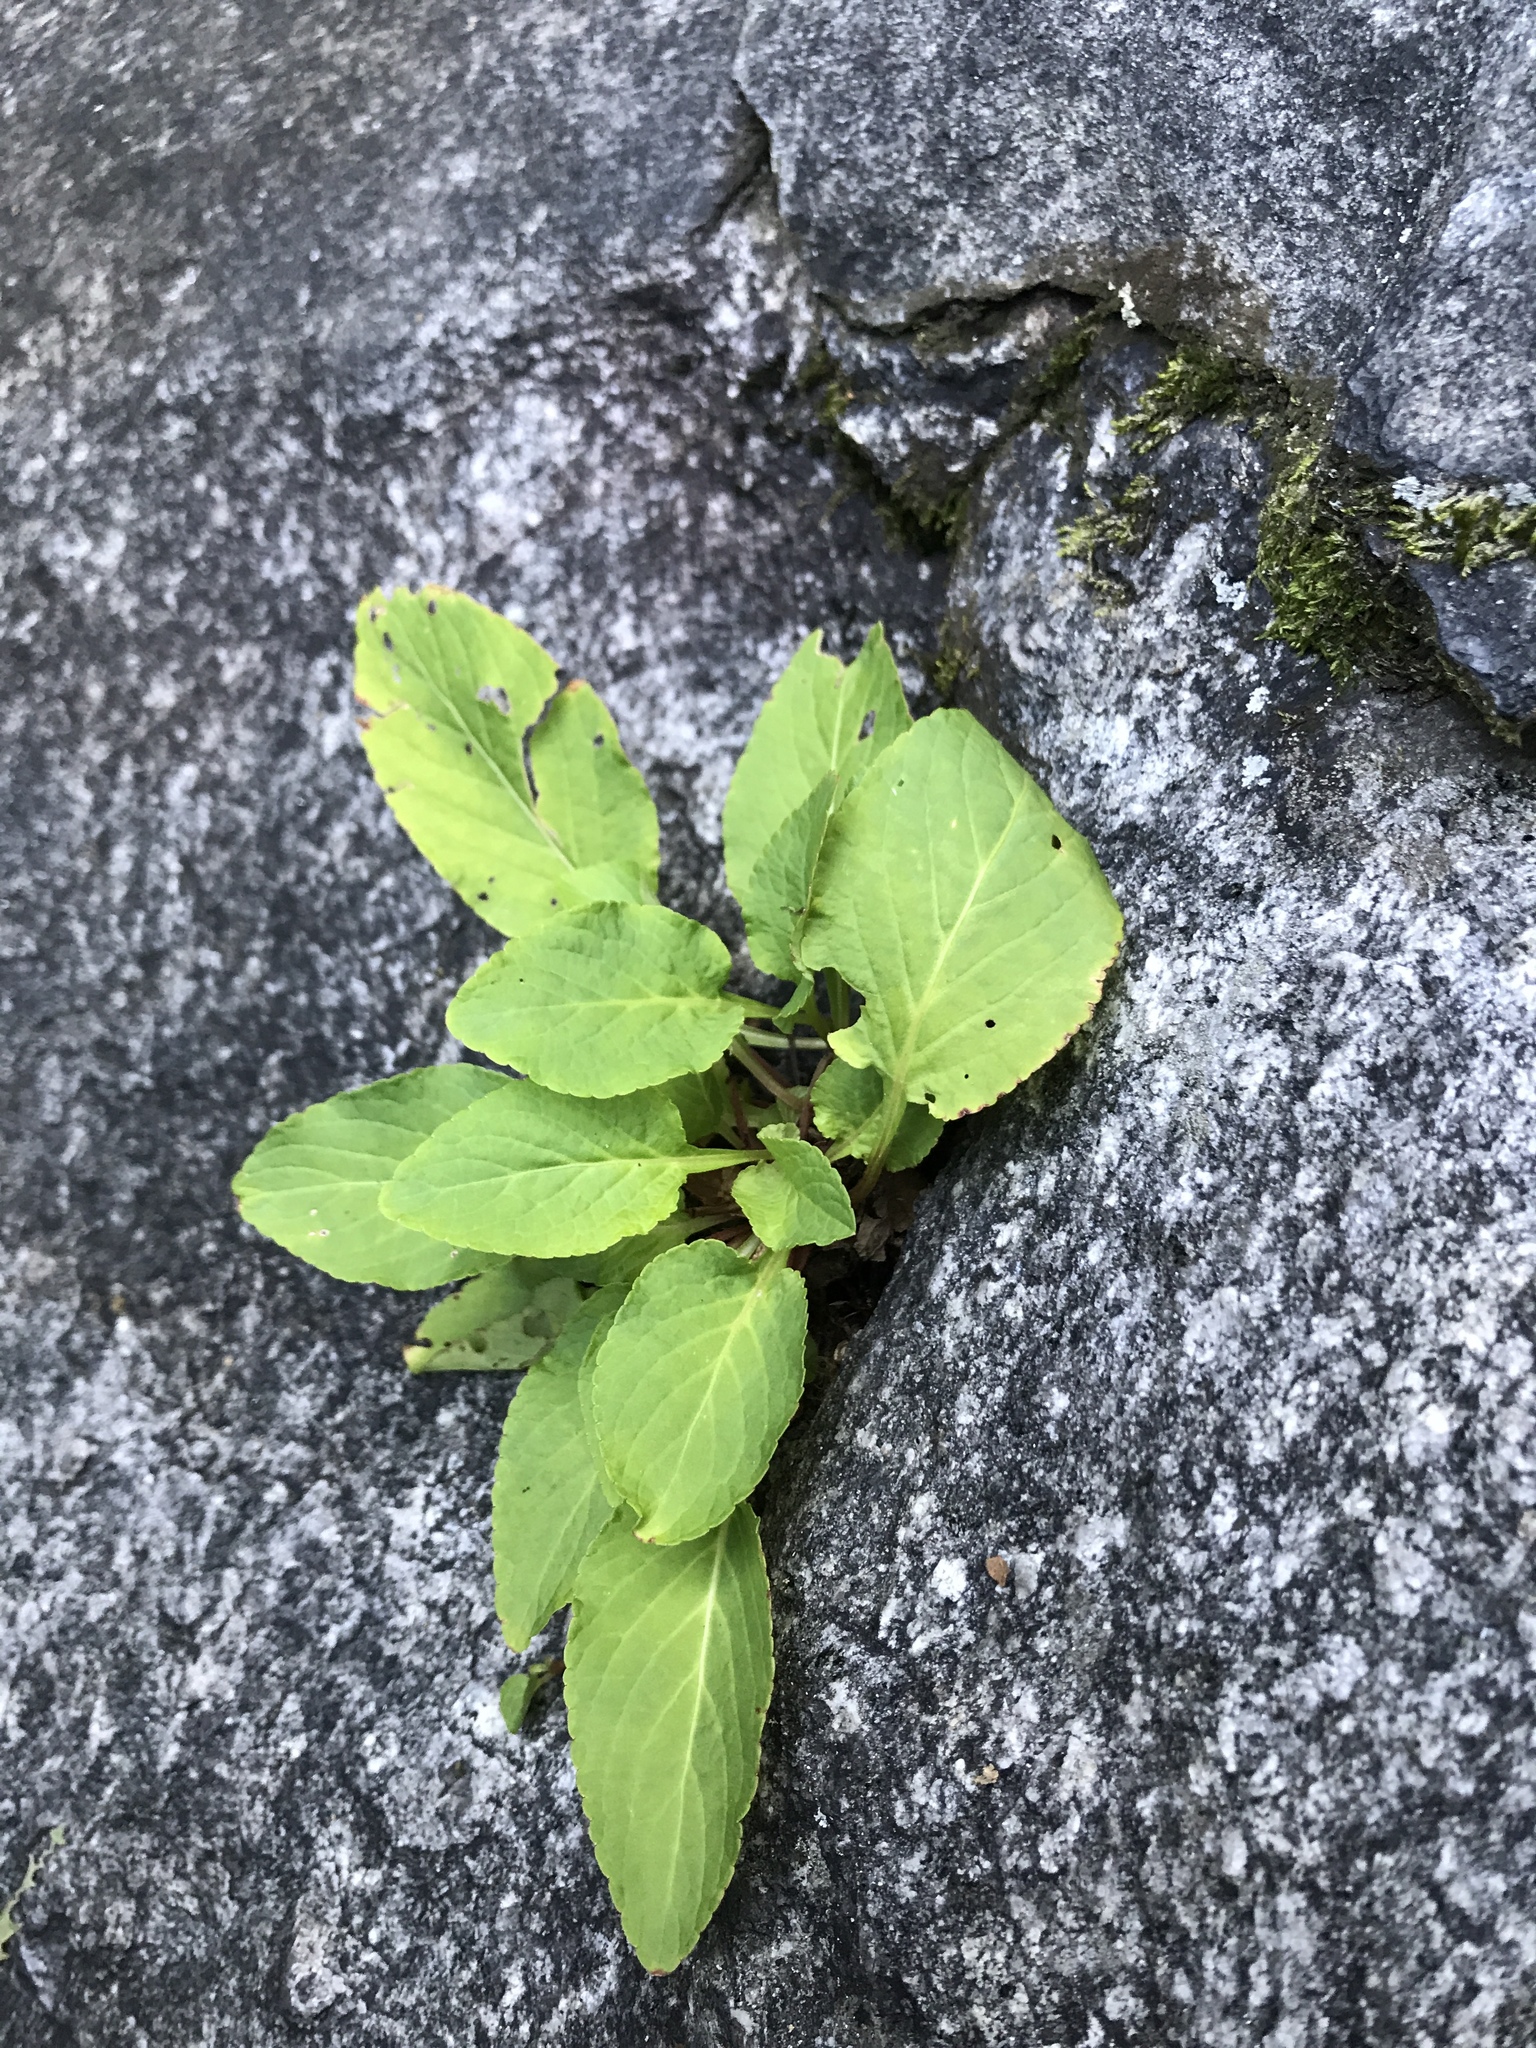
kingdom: Plantae
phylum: Tracheophyta
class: Magnoliopsida
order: Malpighiales
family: Violaceae
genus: Viola
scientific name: Viola primulifolia
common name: Primrose-leaf violet
